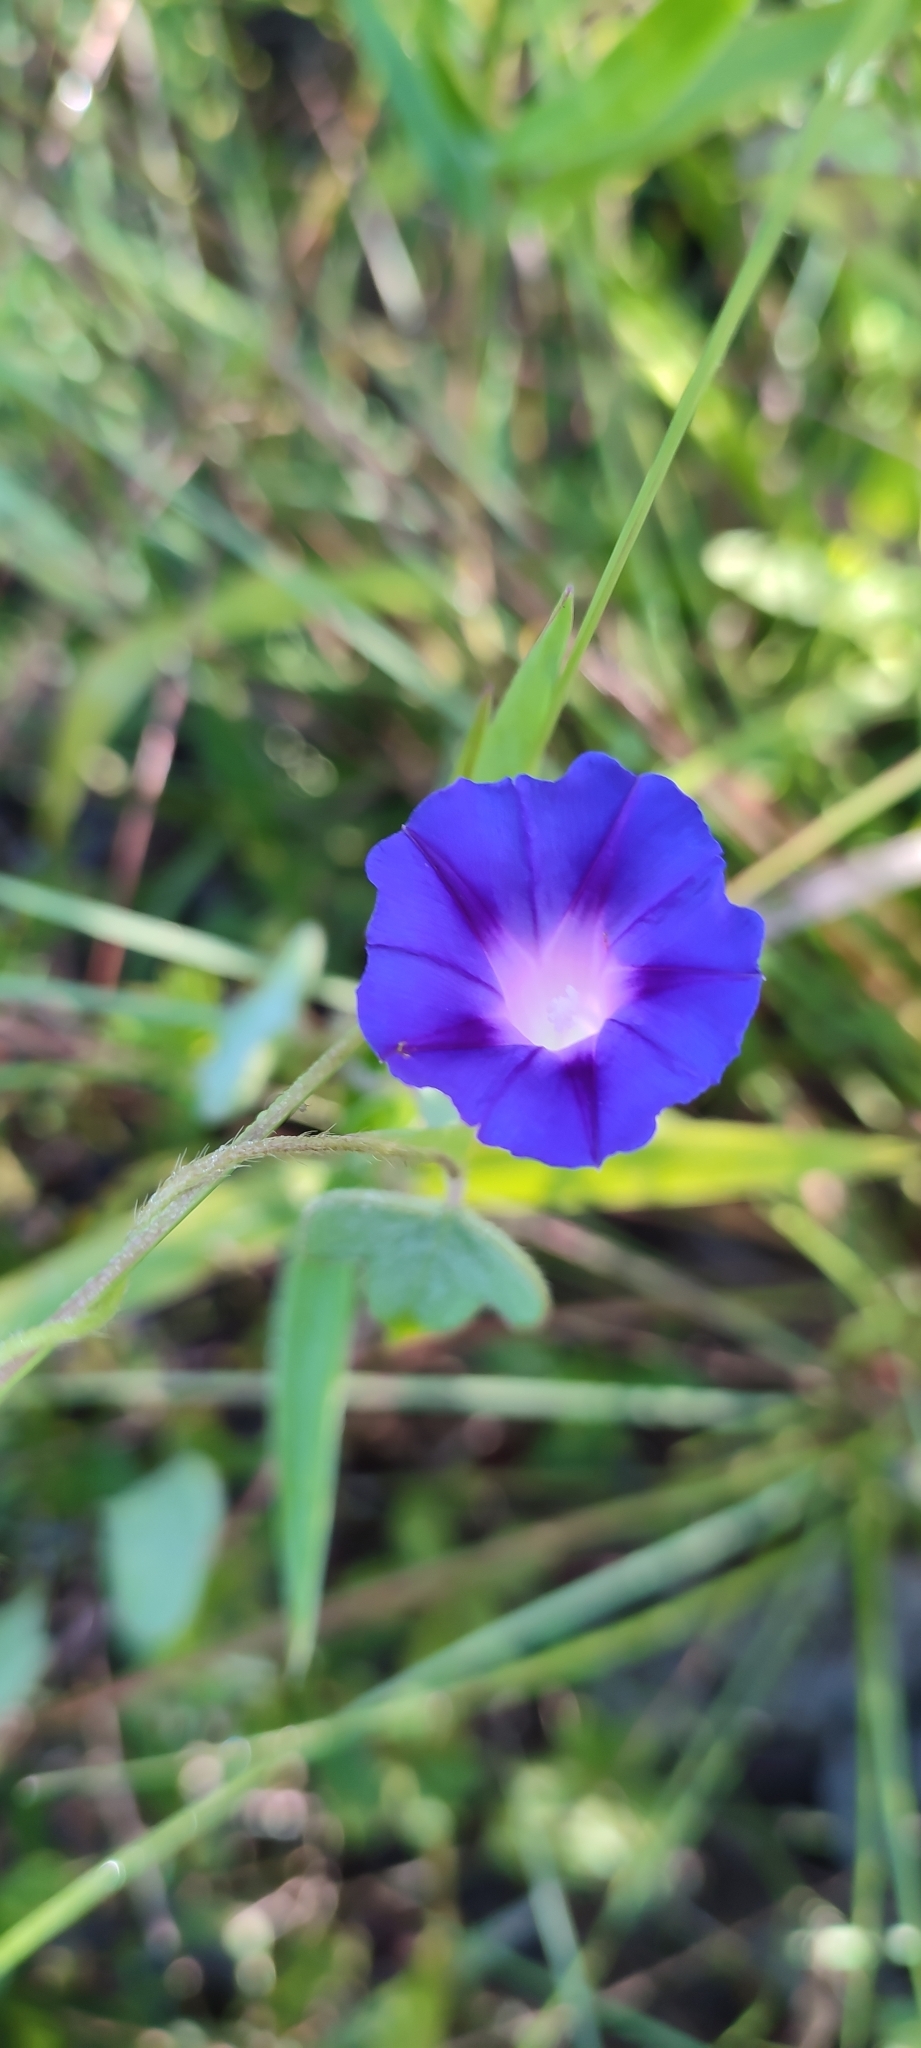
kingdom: Plantae
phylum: Tracheophyta
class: Magnoliopsida
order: Solanales
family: Convolvulaceae
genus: Ipomoea
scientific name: Ipomoea purpurea
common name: Common morning-glory
